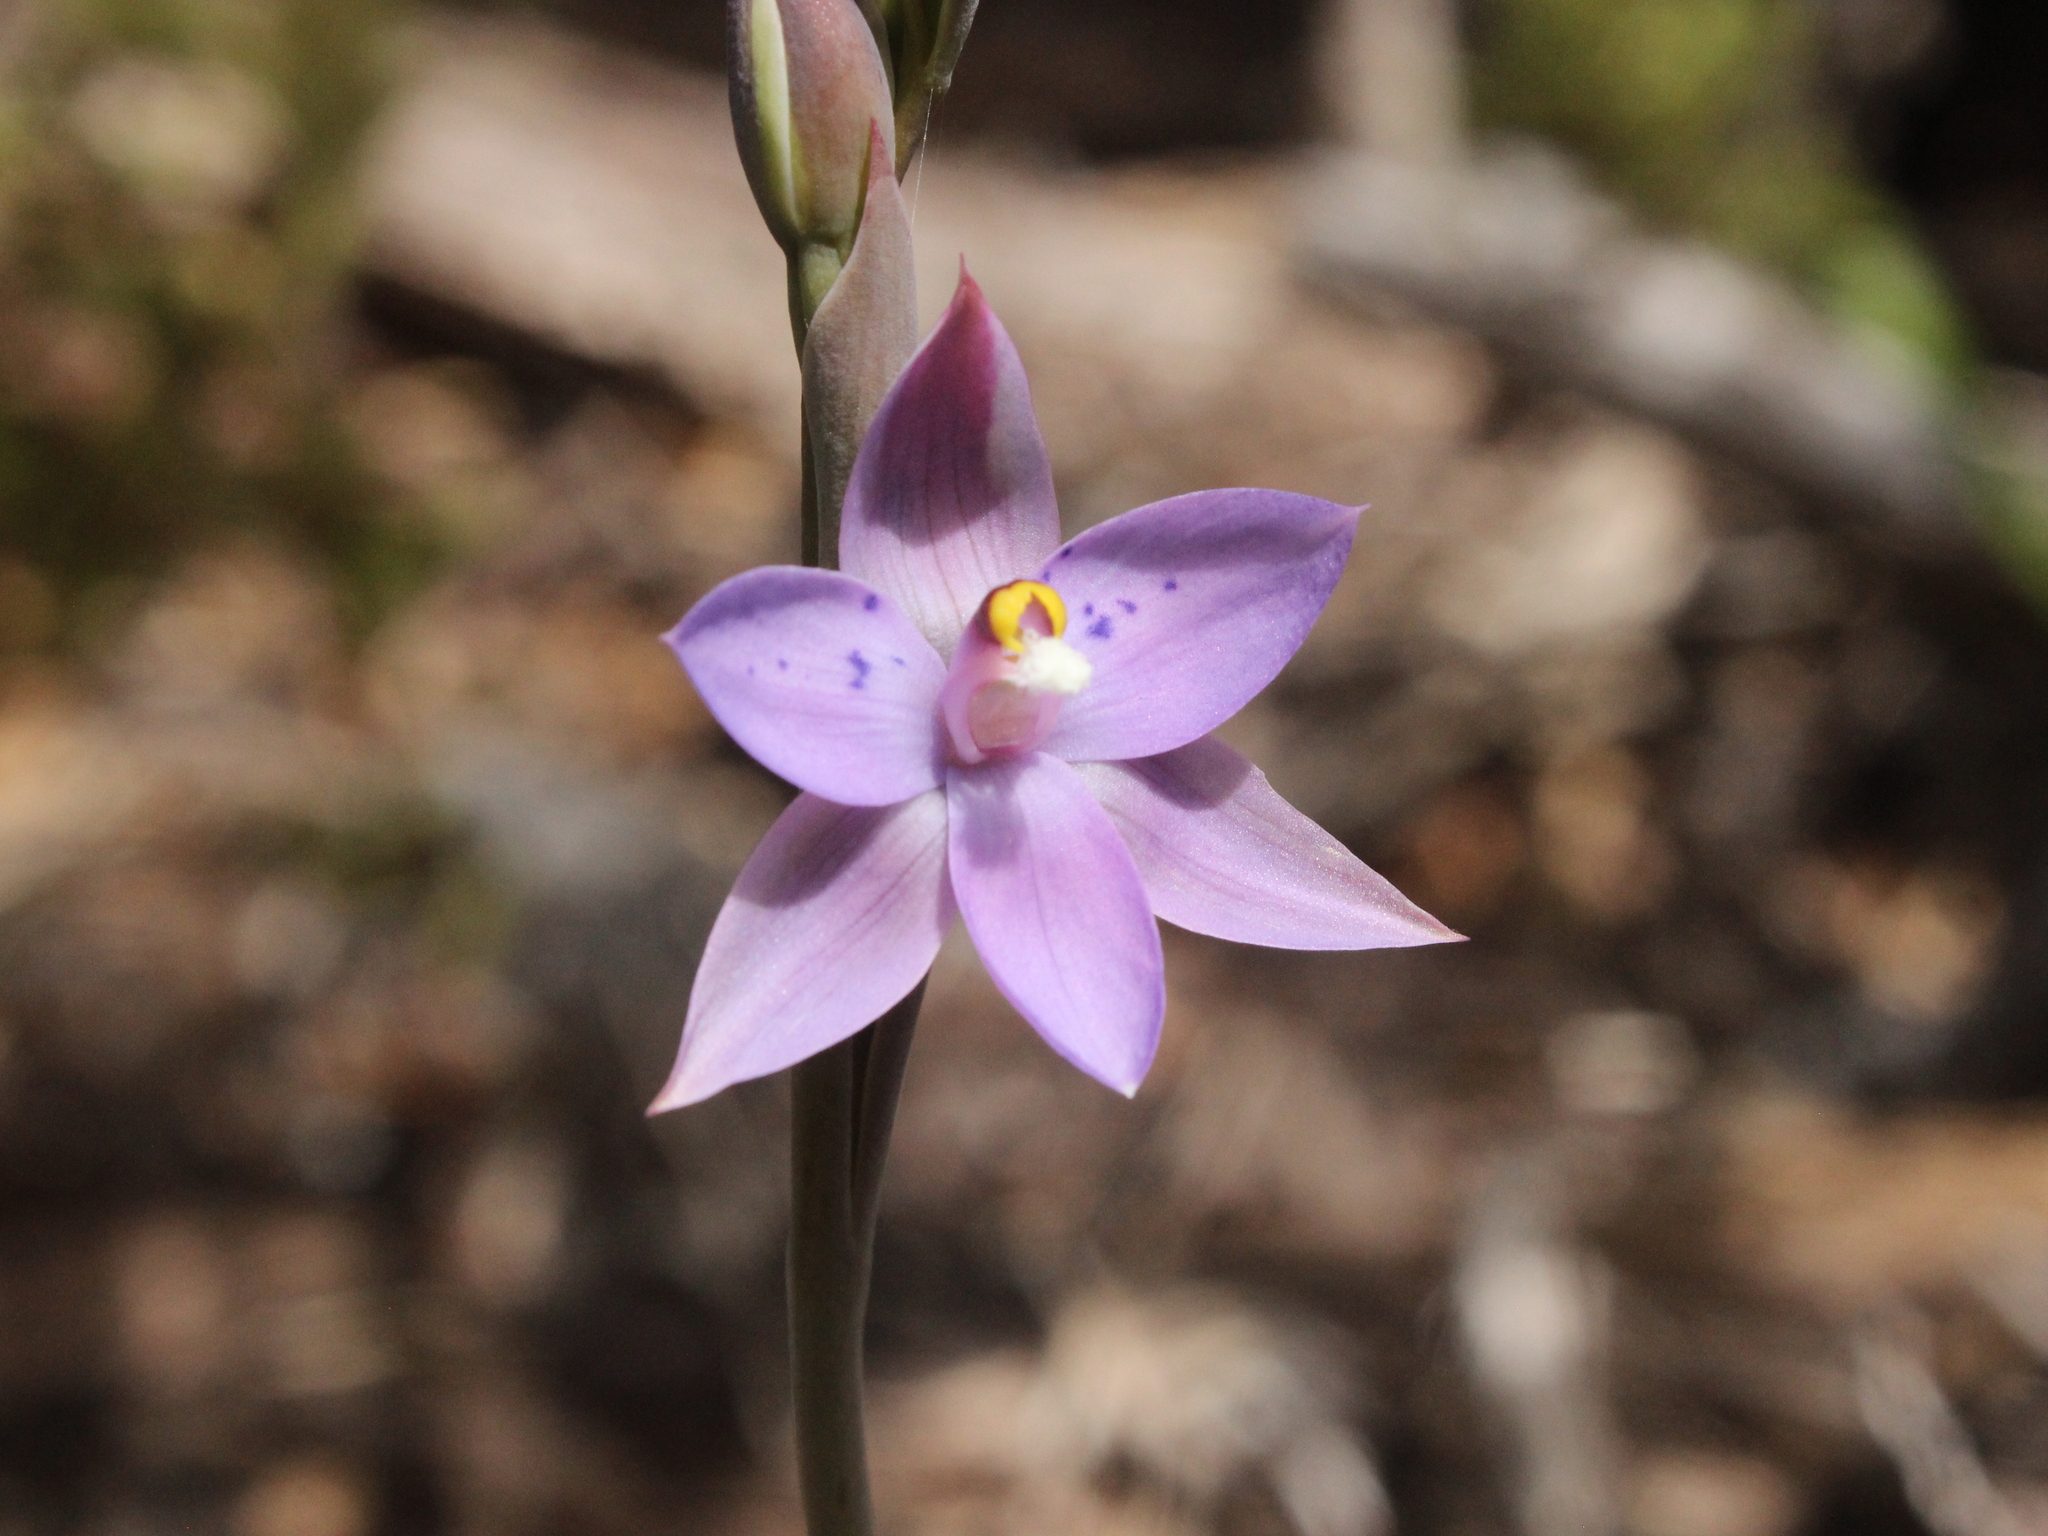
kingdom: Plantae
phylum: Tracheophyta
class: Liliopsida
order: Asparagales
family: Orchidaceae
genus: Thelymitra
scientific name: Thelymitra nervosa
